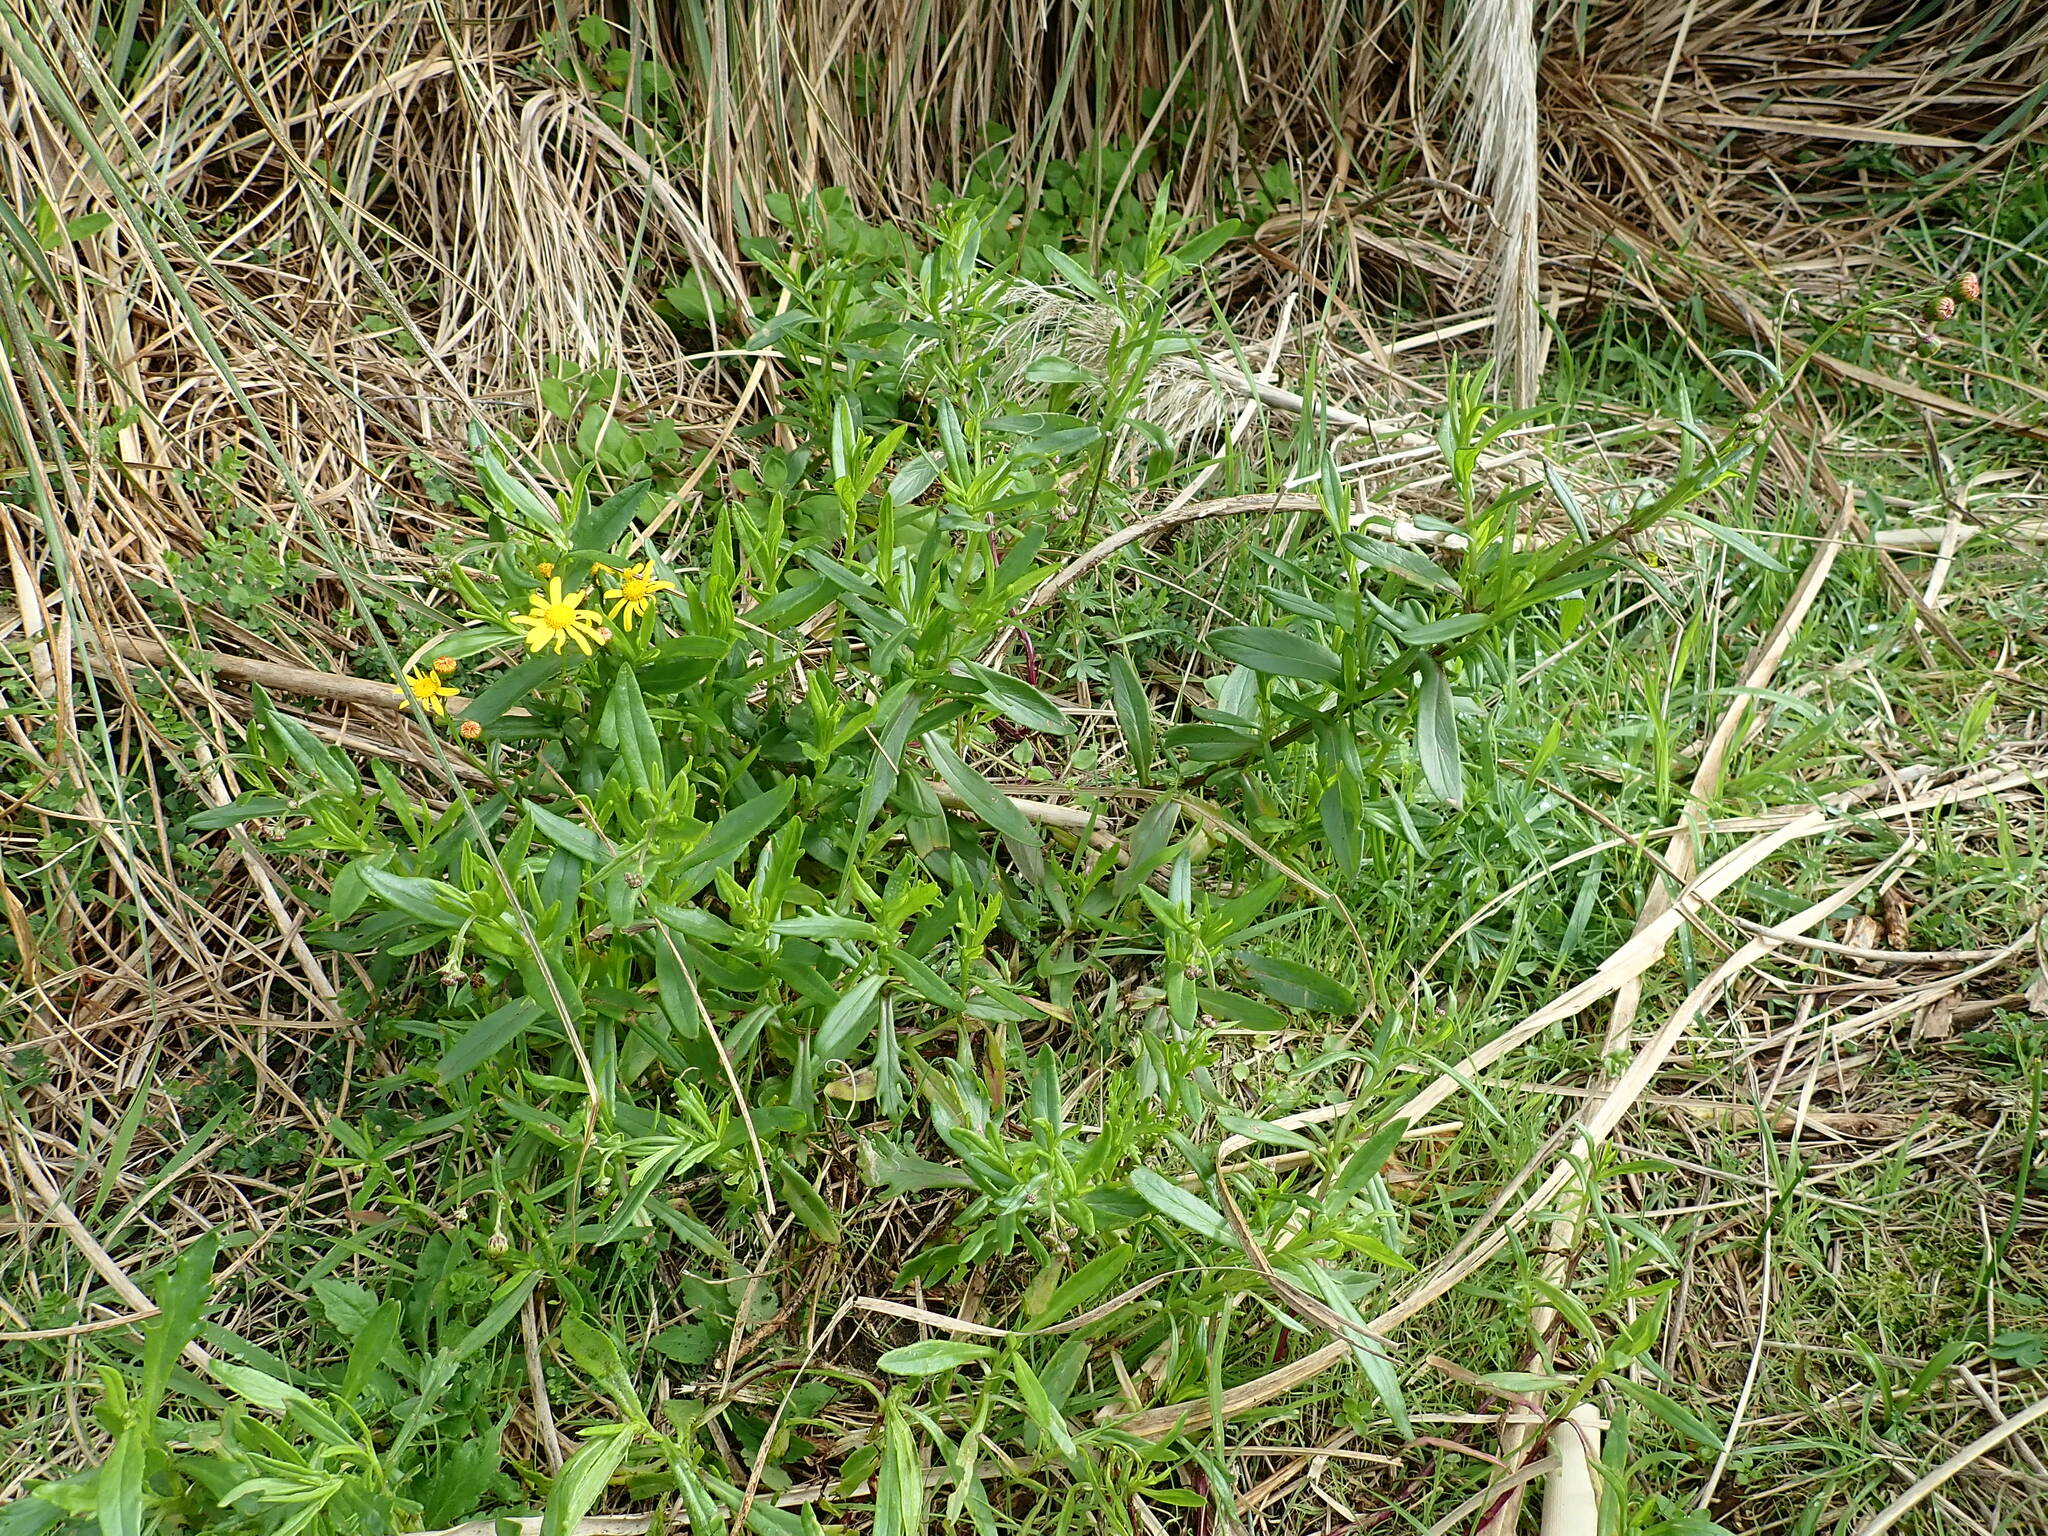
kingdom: Plantae
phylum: Tracheophyta
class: Magnoliopsida
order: Asterales
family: Asteraceae
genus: Senecio
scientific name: Senecio skirrhodon
